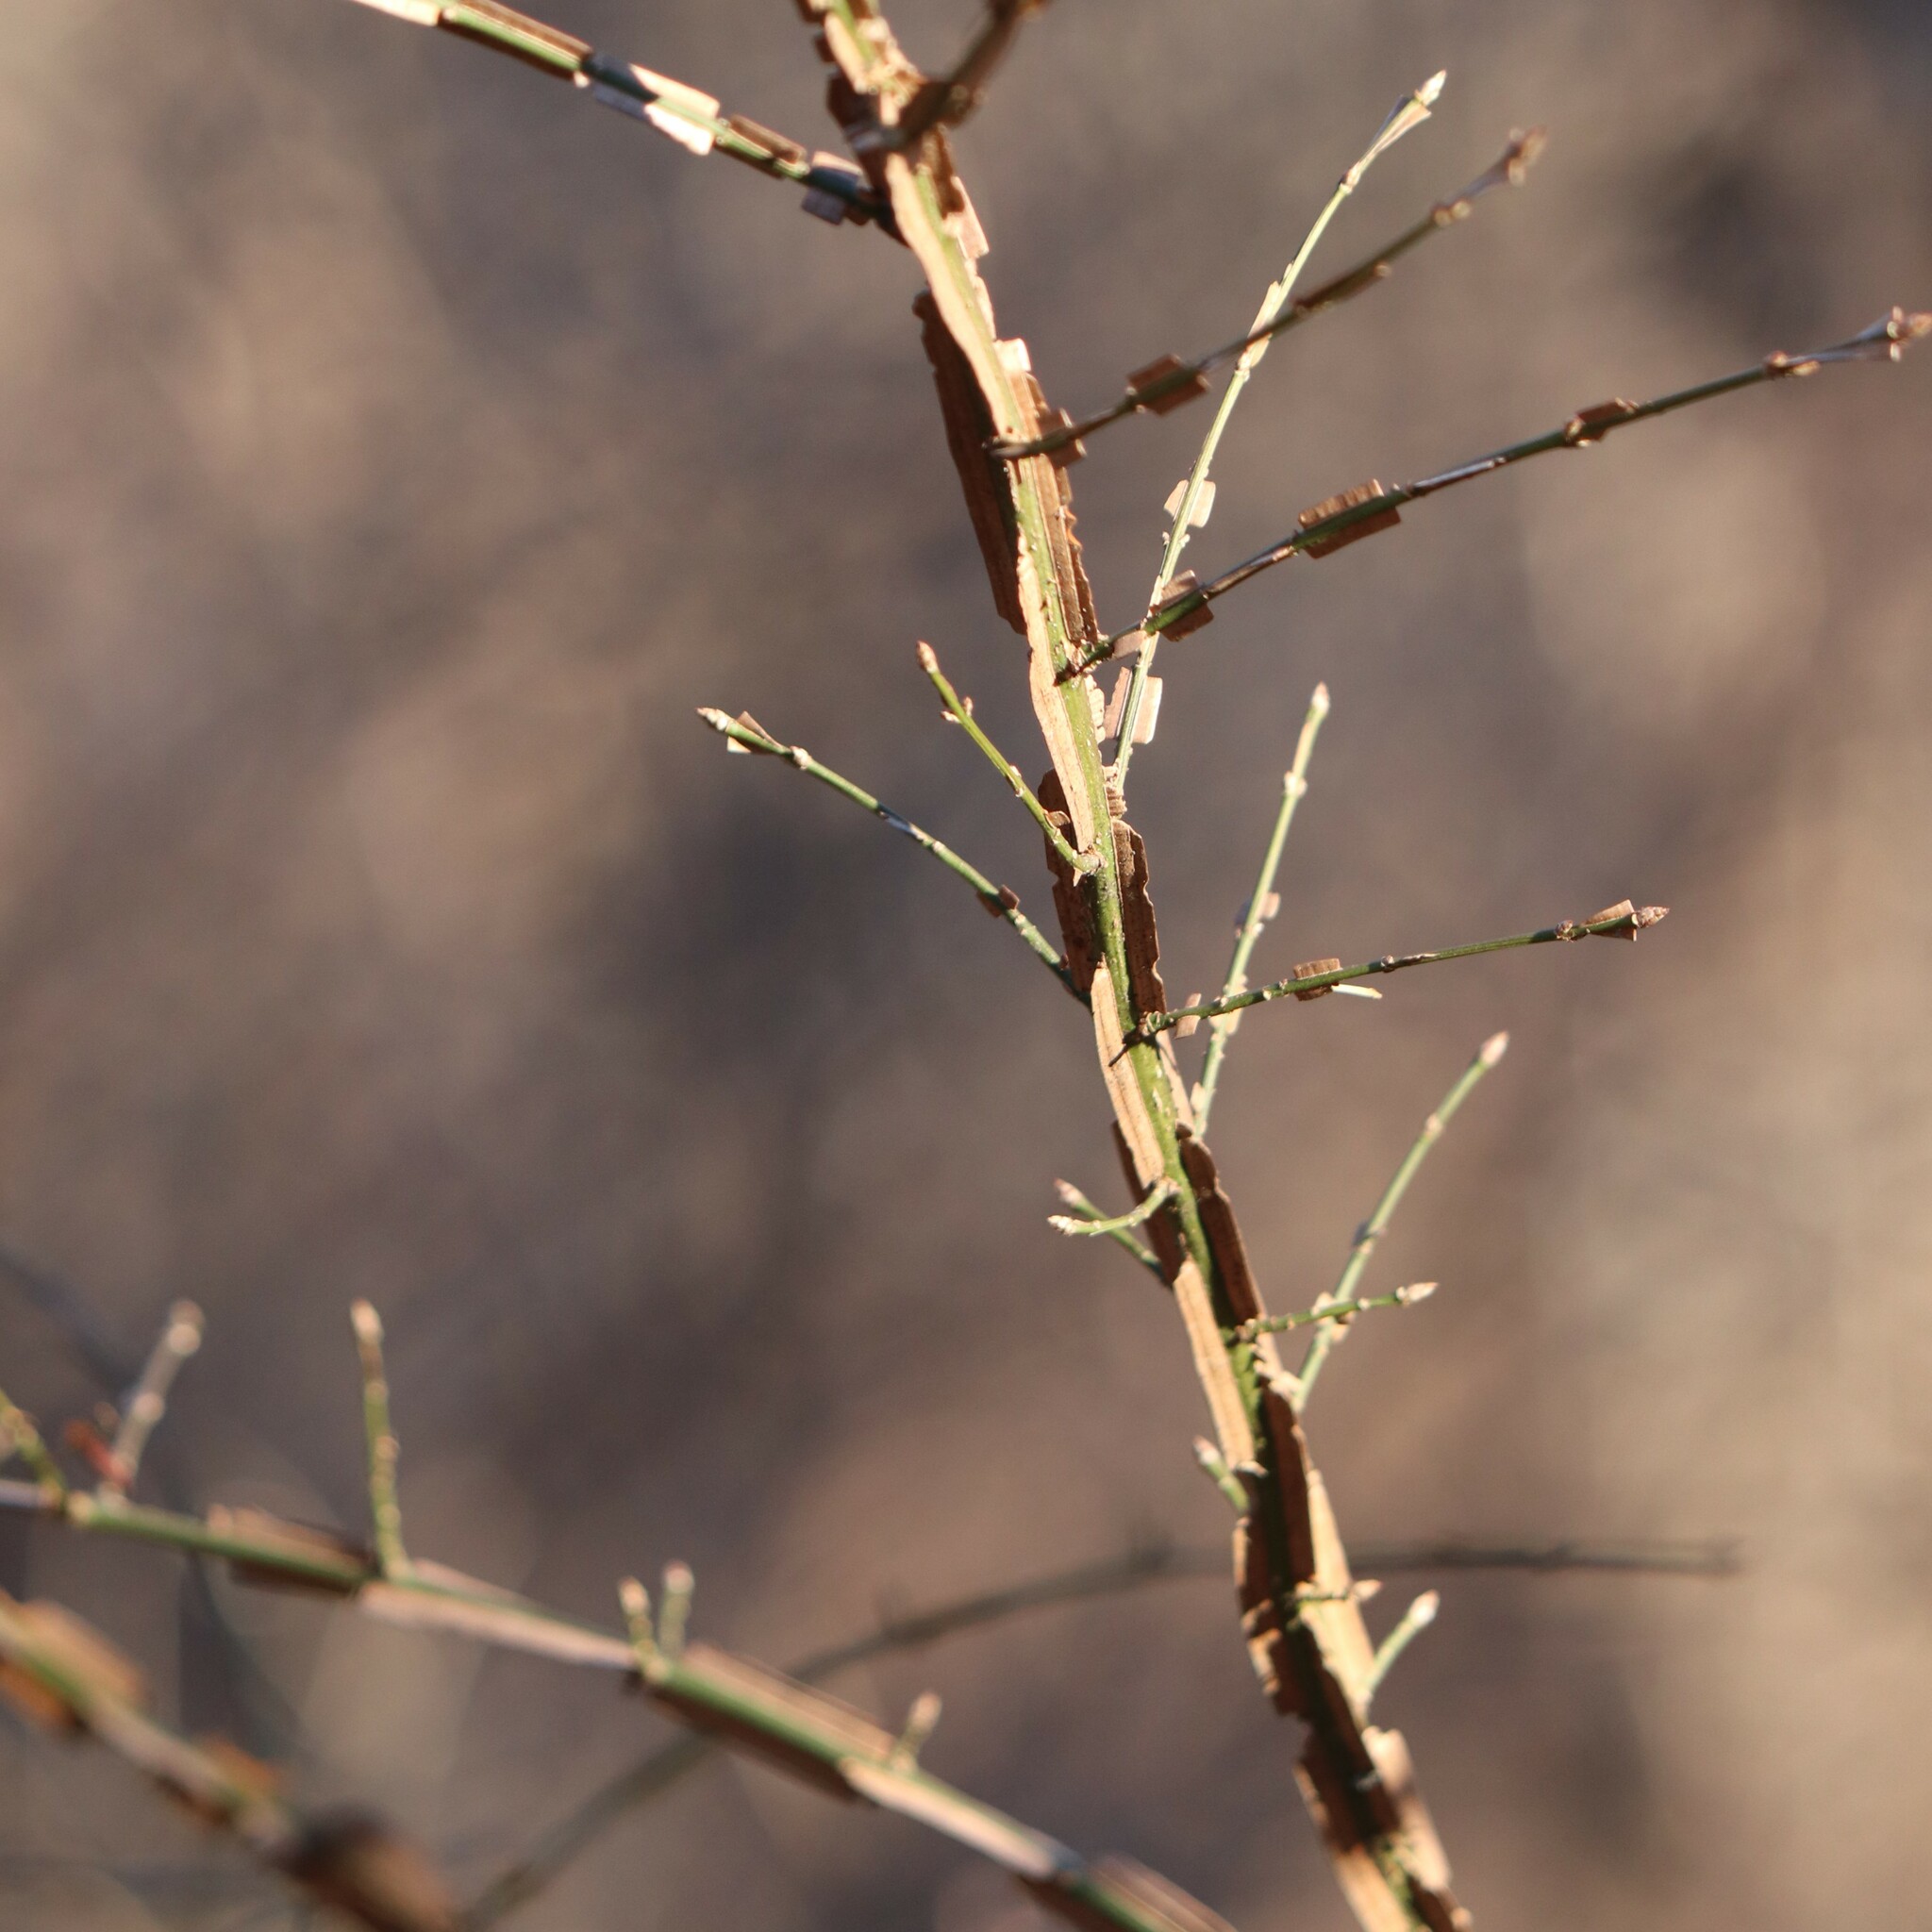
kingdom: Plantae
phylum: Tracheophyta
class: Magnoliopsida
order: Celastrales
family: Celastraceae
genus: Euonymus
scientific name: Euonymus alatus
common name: Winged euonymus
